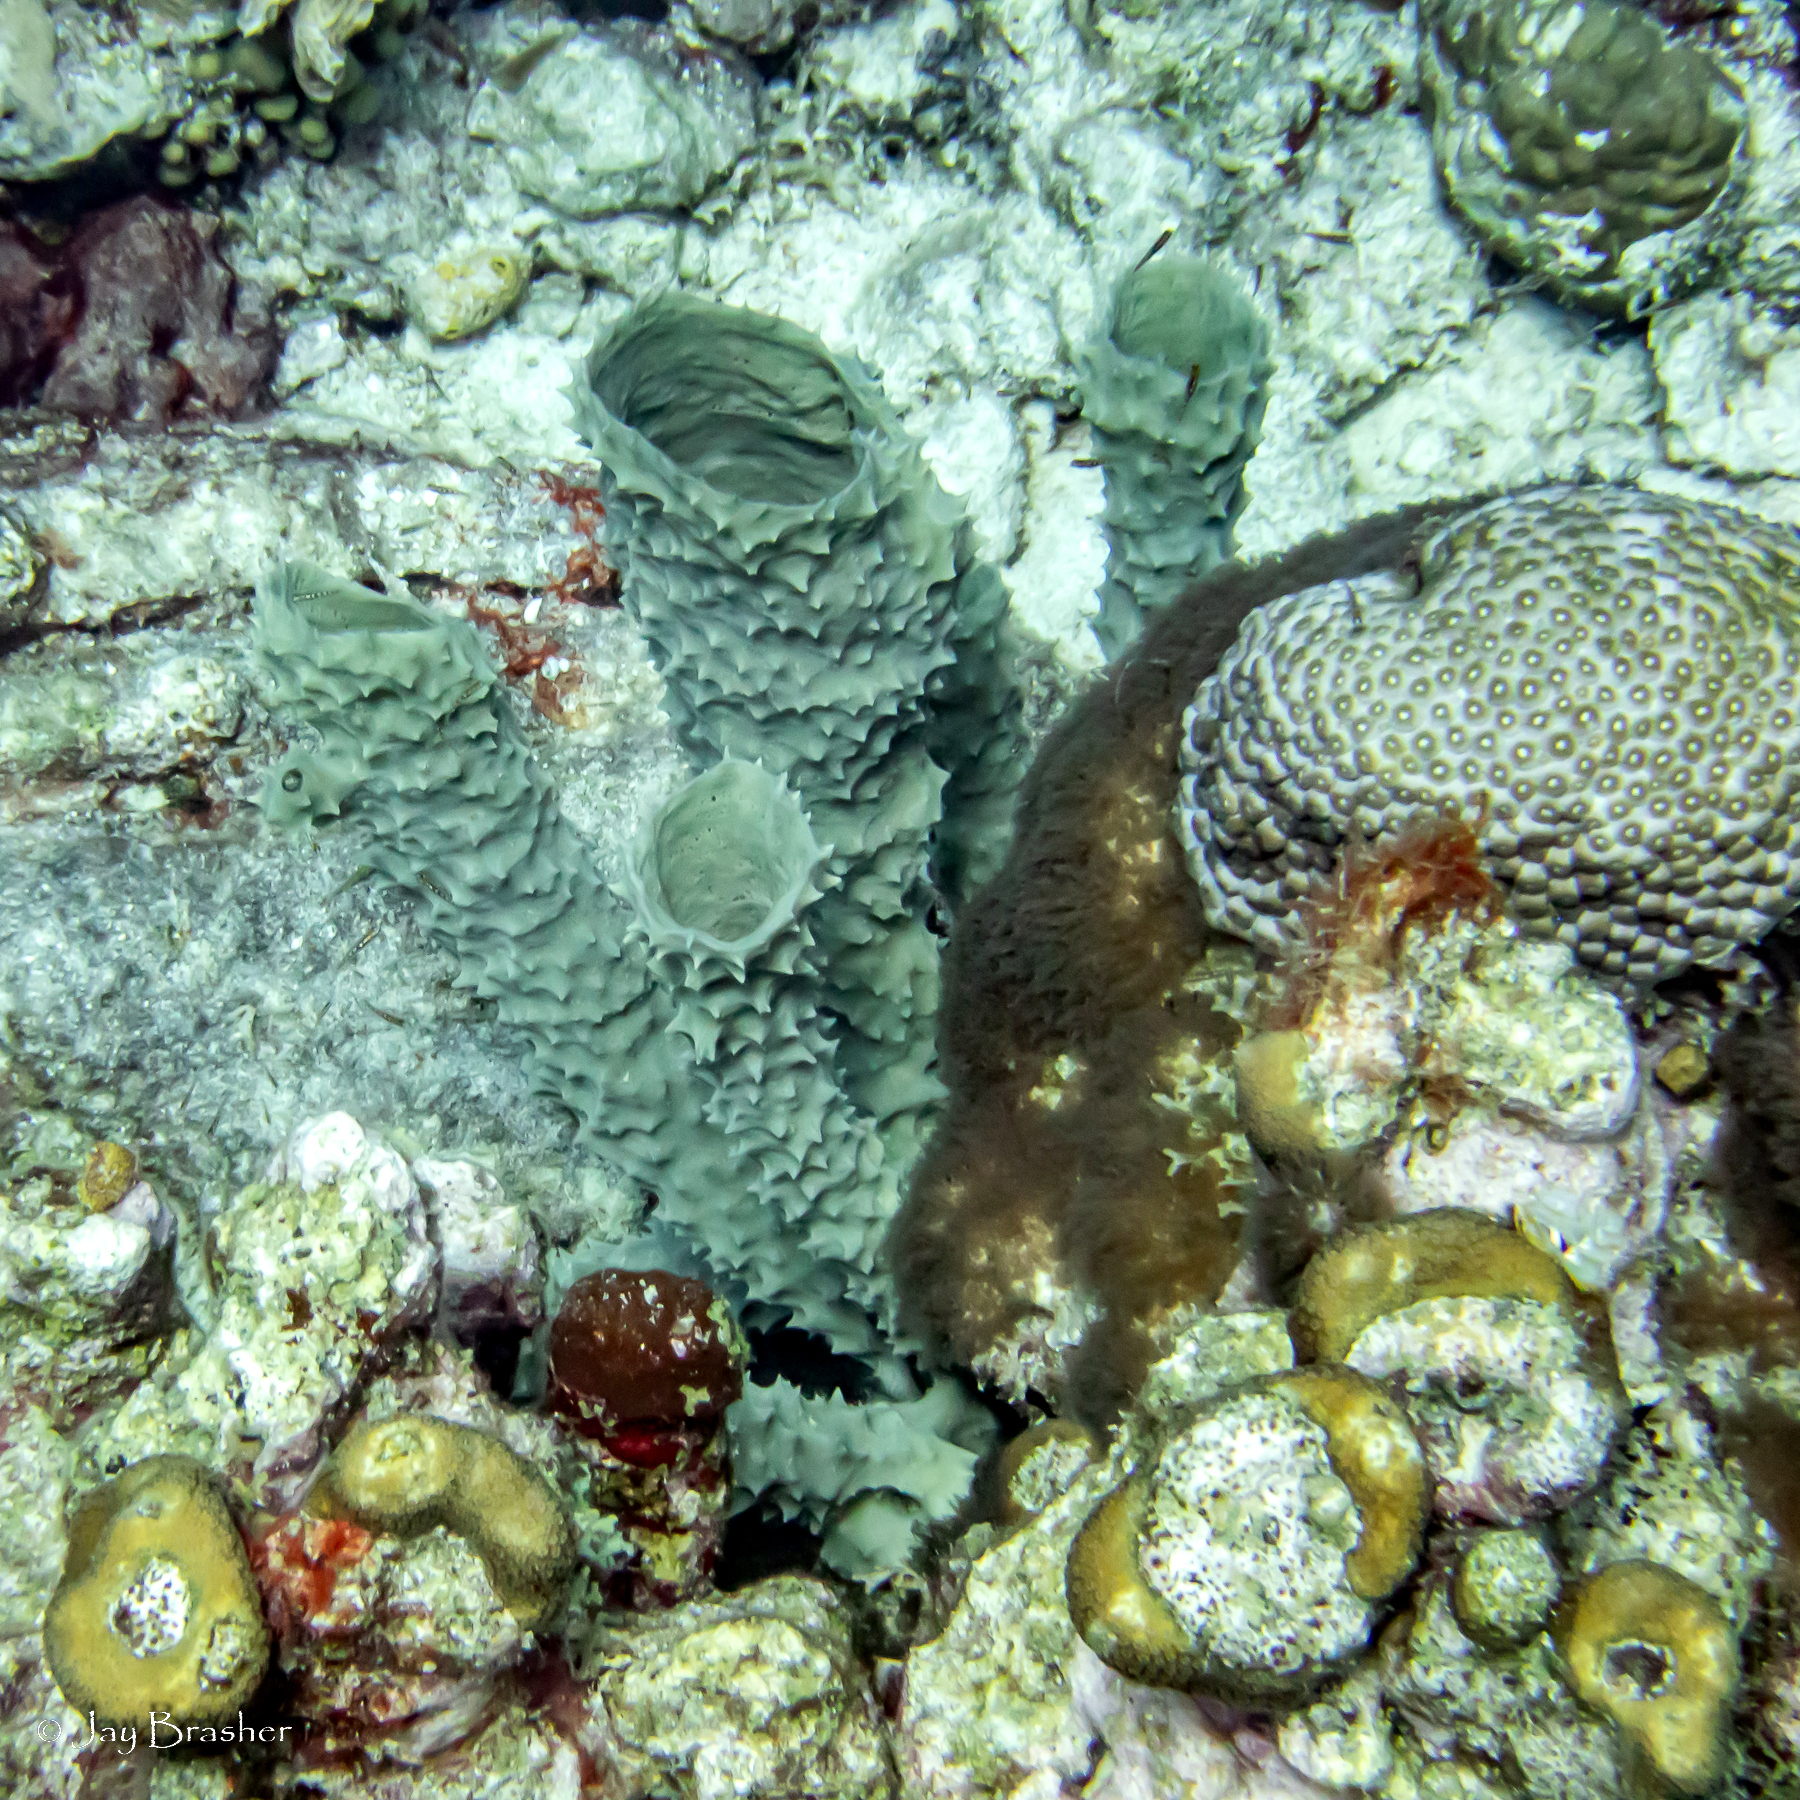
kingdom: Animalia
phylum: Porifera
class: Demospongiae
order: Haplosclerida
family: Callyspongiidae
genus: Callyspongia
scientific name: Callyspongia aculeata
